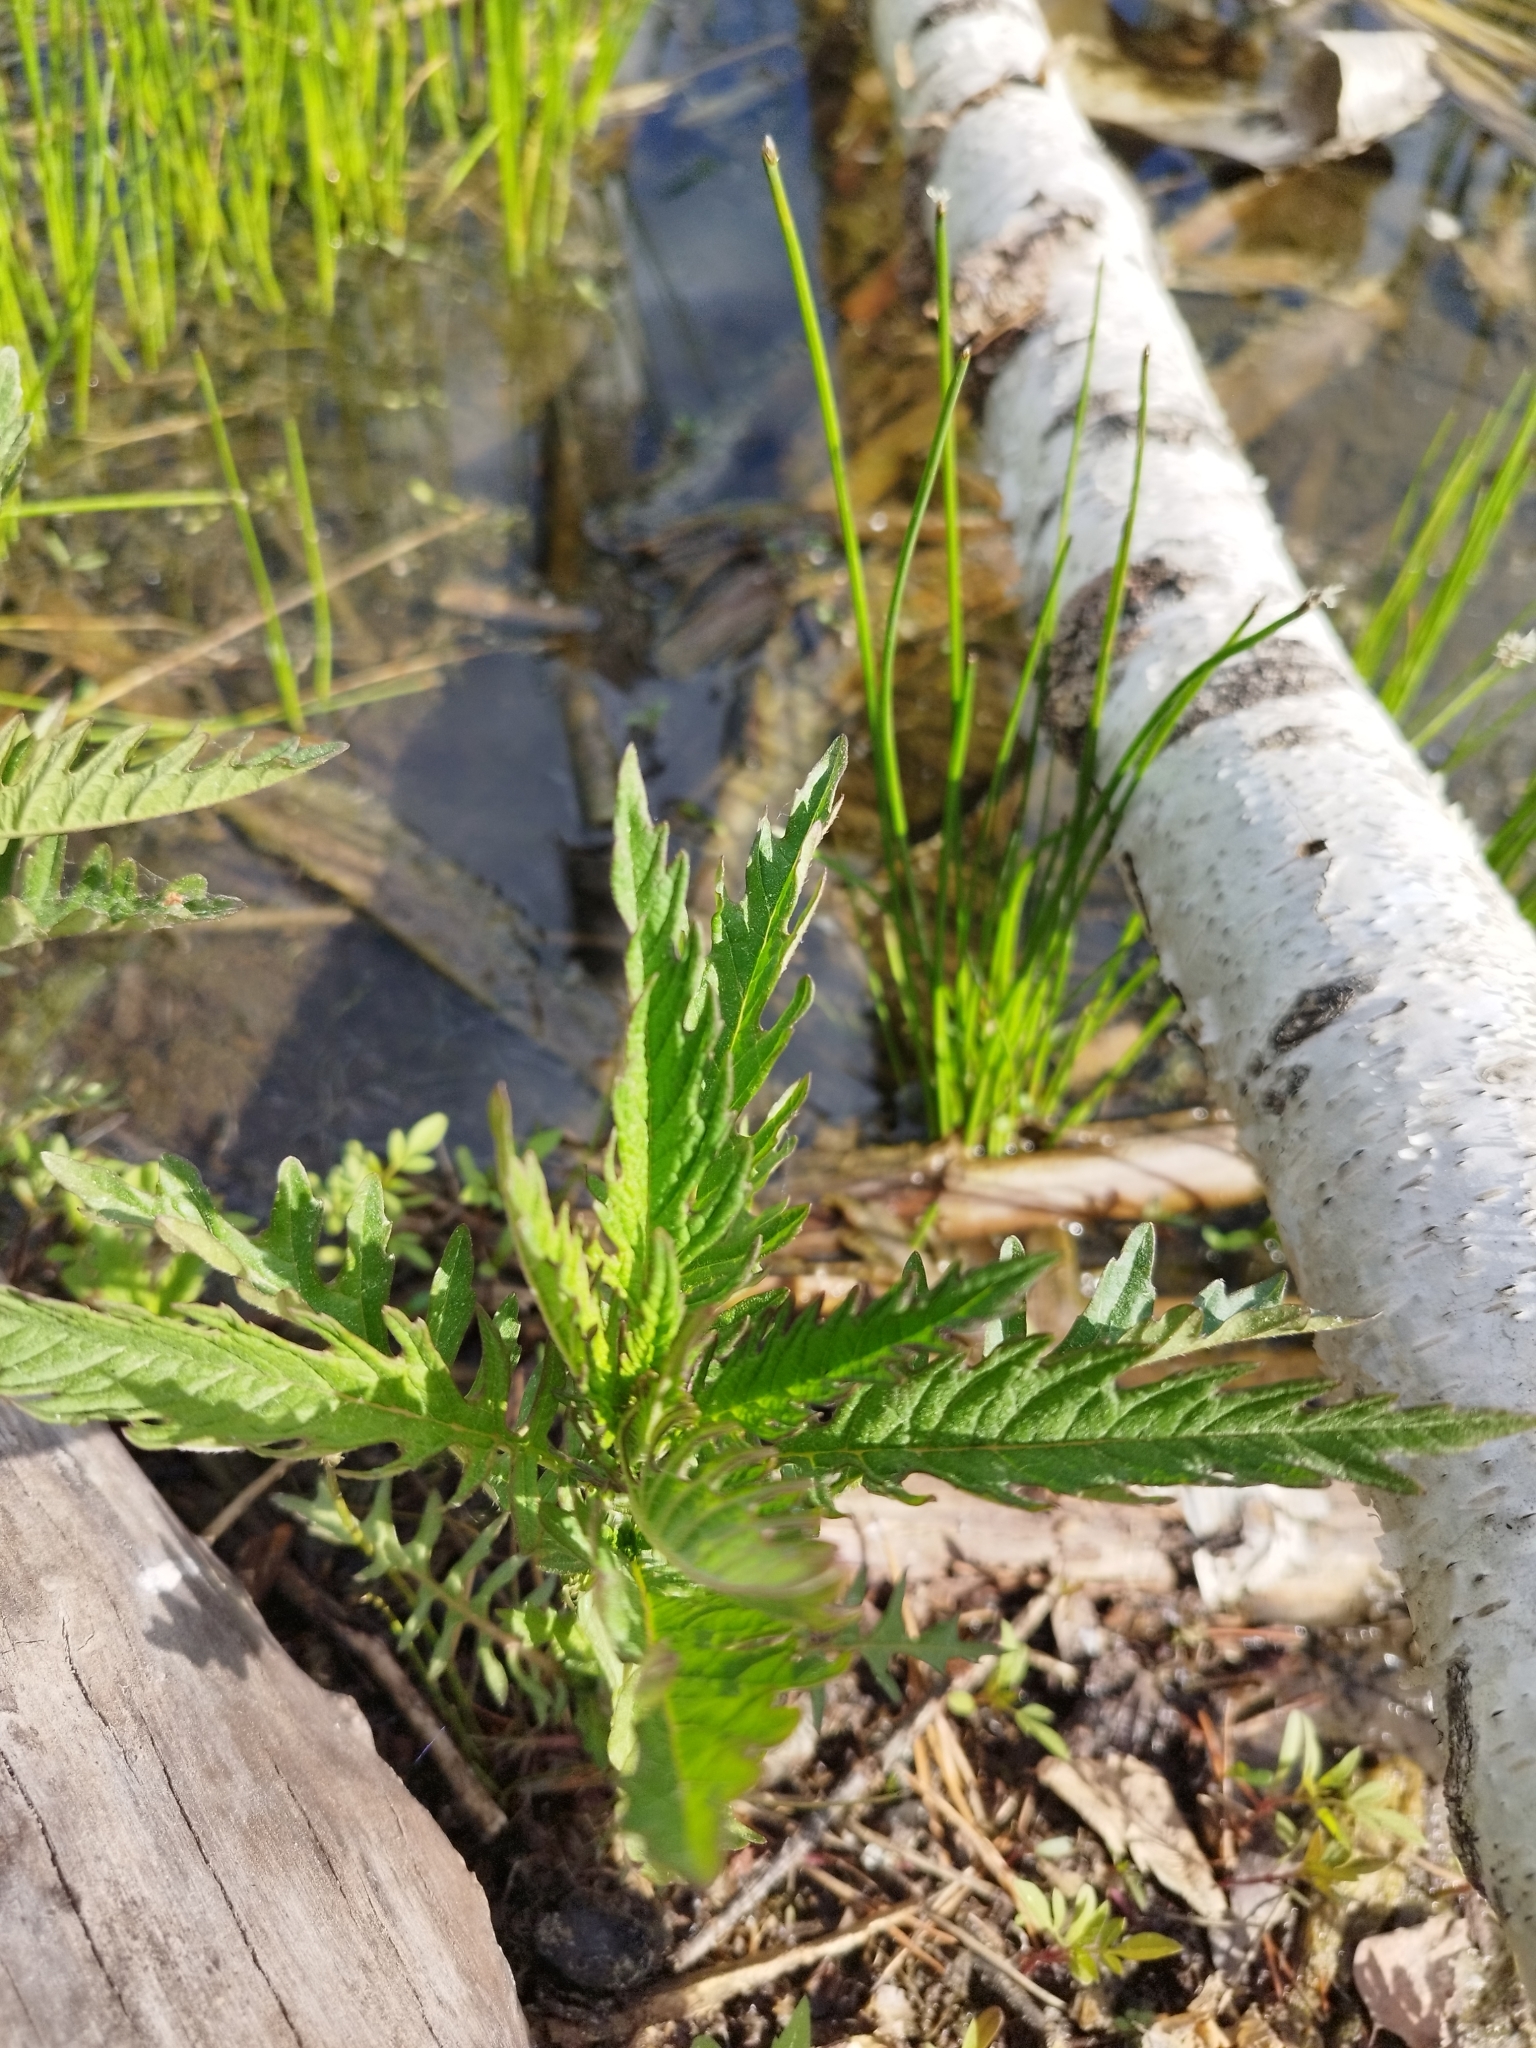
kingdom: Plantae
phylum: Tracheophyta
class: Magnoliopsida
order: Lamiales
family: Lamiaceae
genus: Lycopus
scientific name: Lycopus europaeus
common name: European bugleweed
